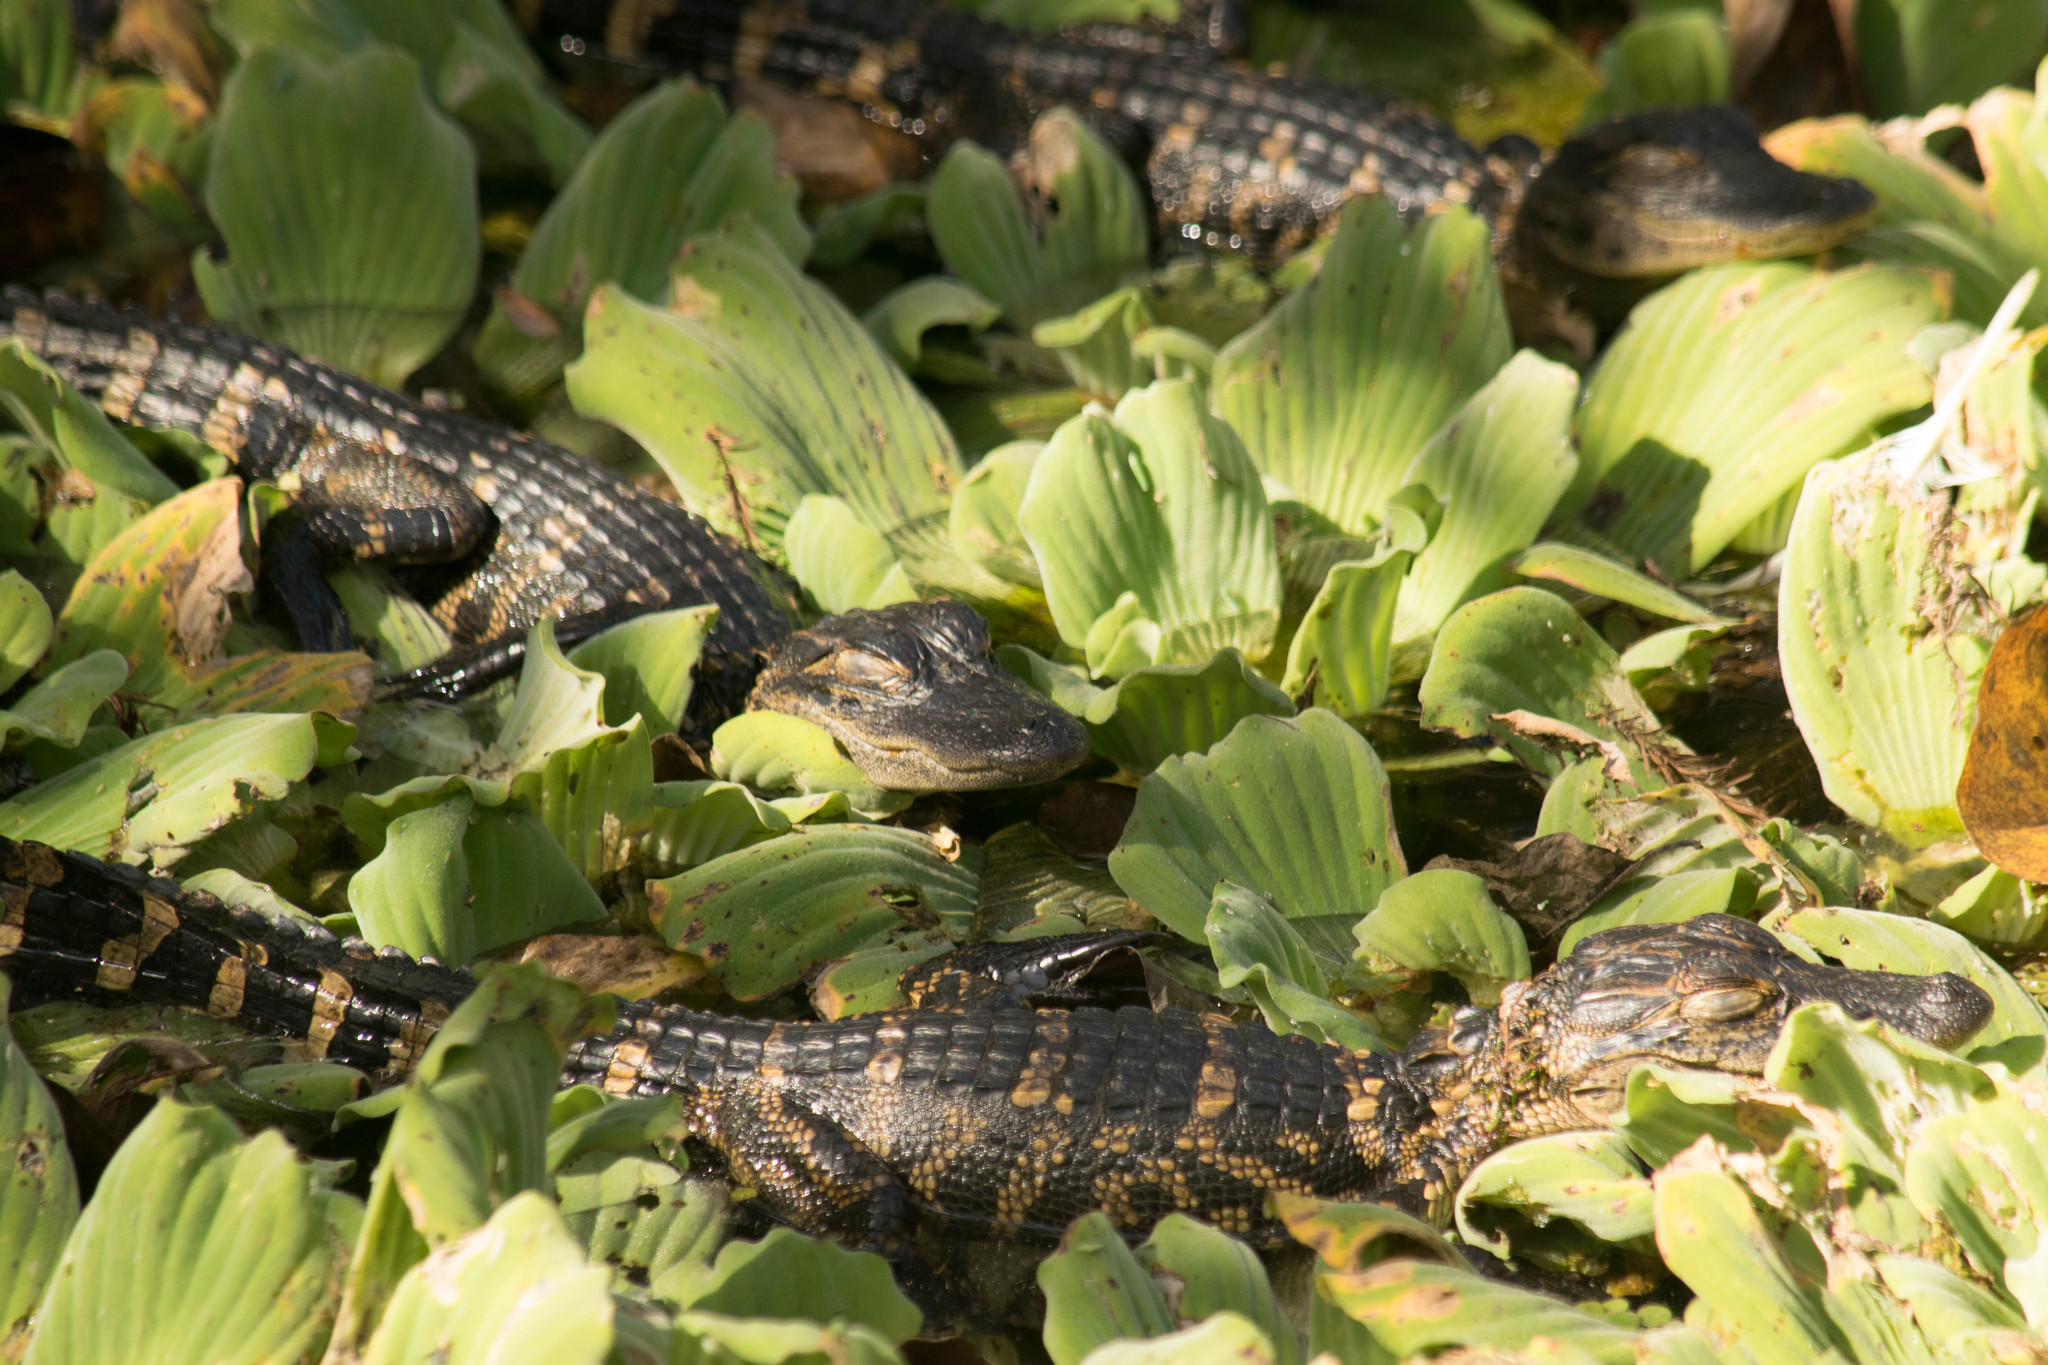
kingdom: Plantae
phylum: Tracheophyta
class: Liliopsida
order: Alismatales
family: Araceae
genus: Pistia
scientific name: Pistia stratiotes
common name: Water lettuce
